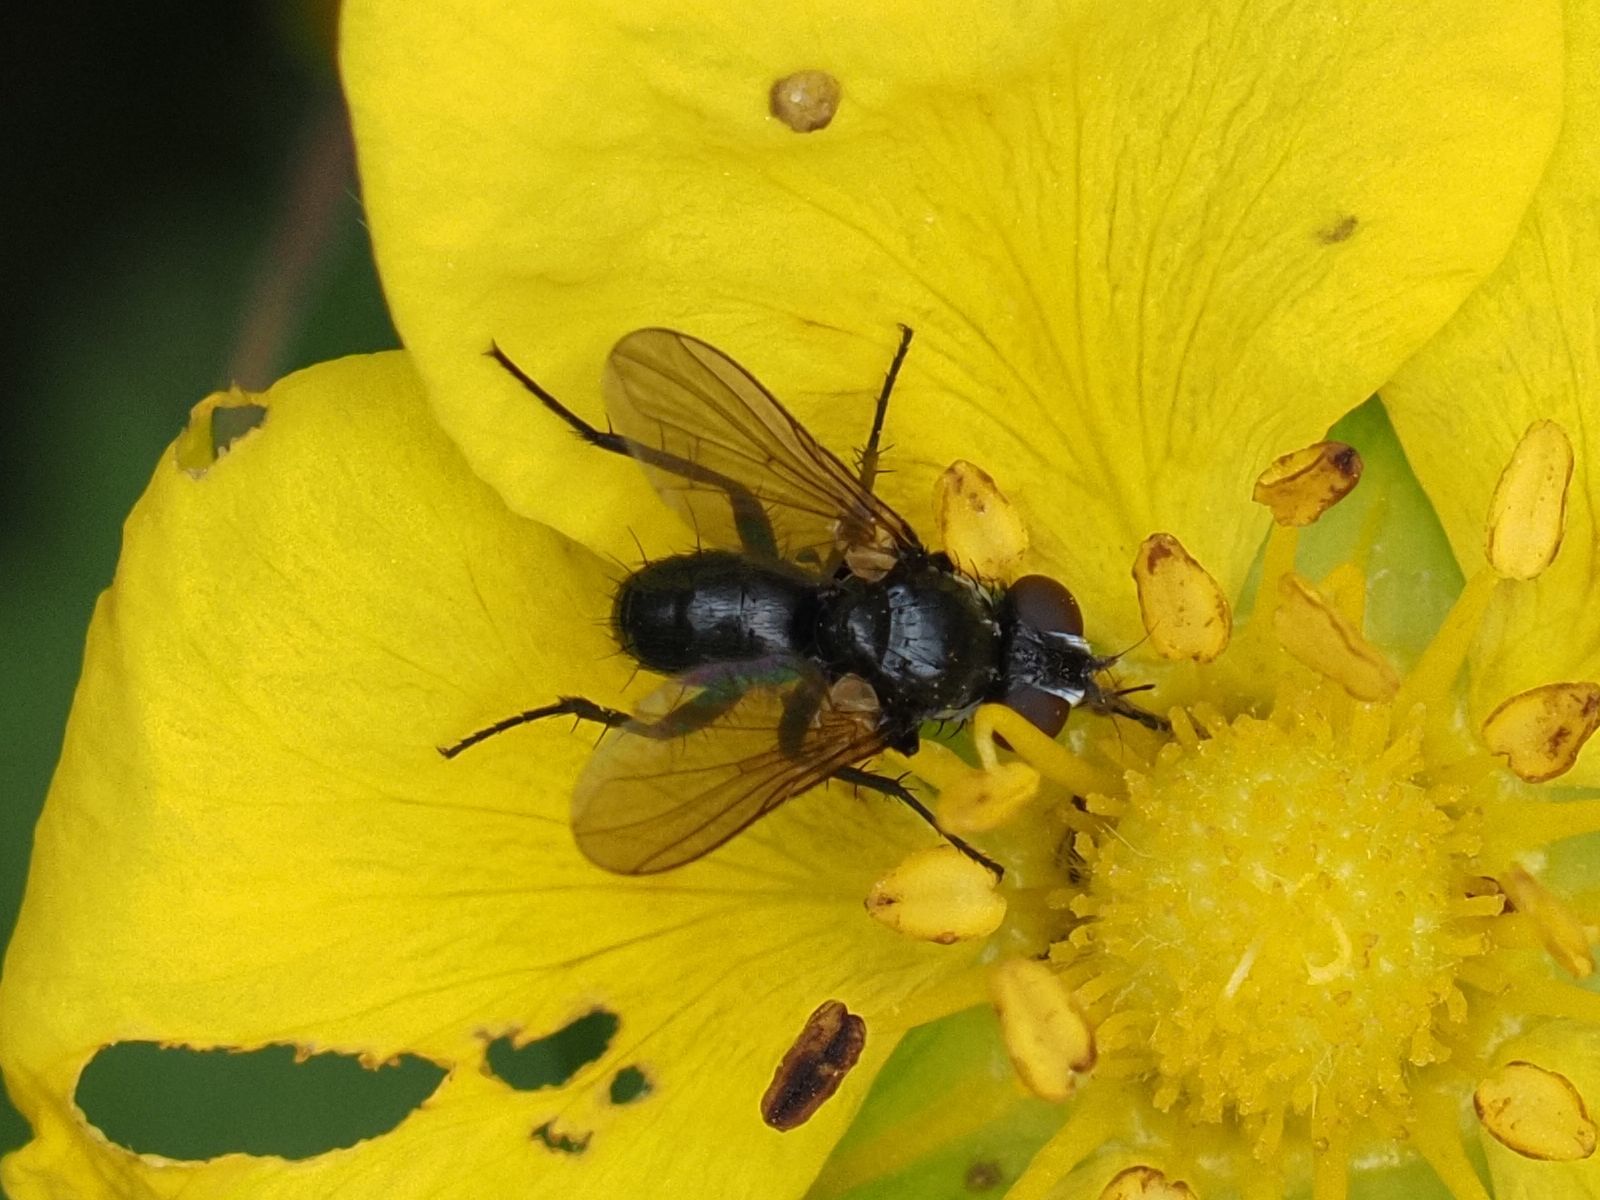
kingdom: Animalia
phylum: Arthropoda
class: Insecta
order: Diptera
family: Tachinidae
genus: Phania
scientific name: Phania funesta
